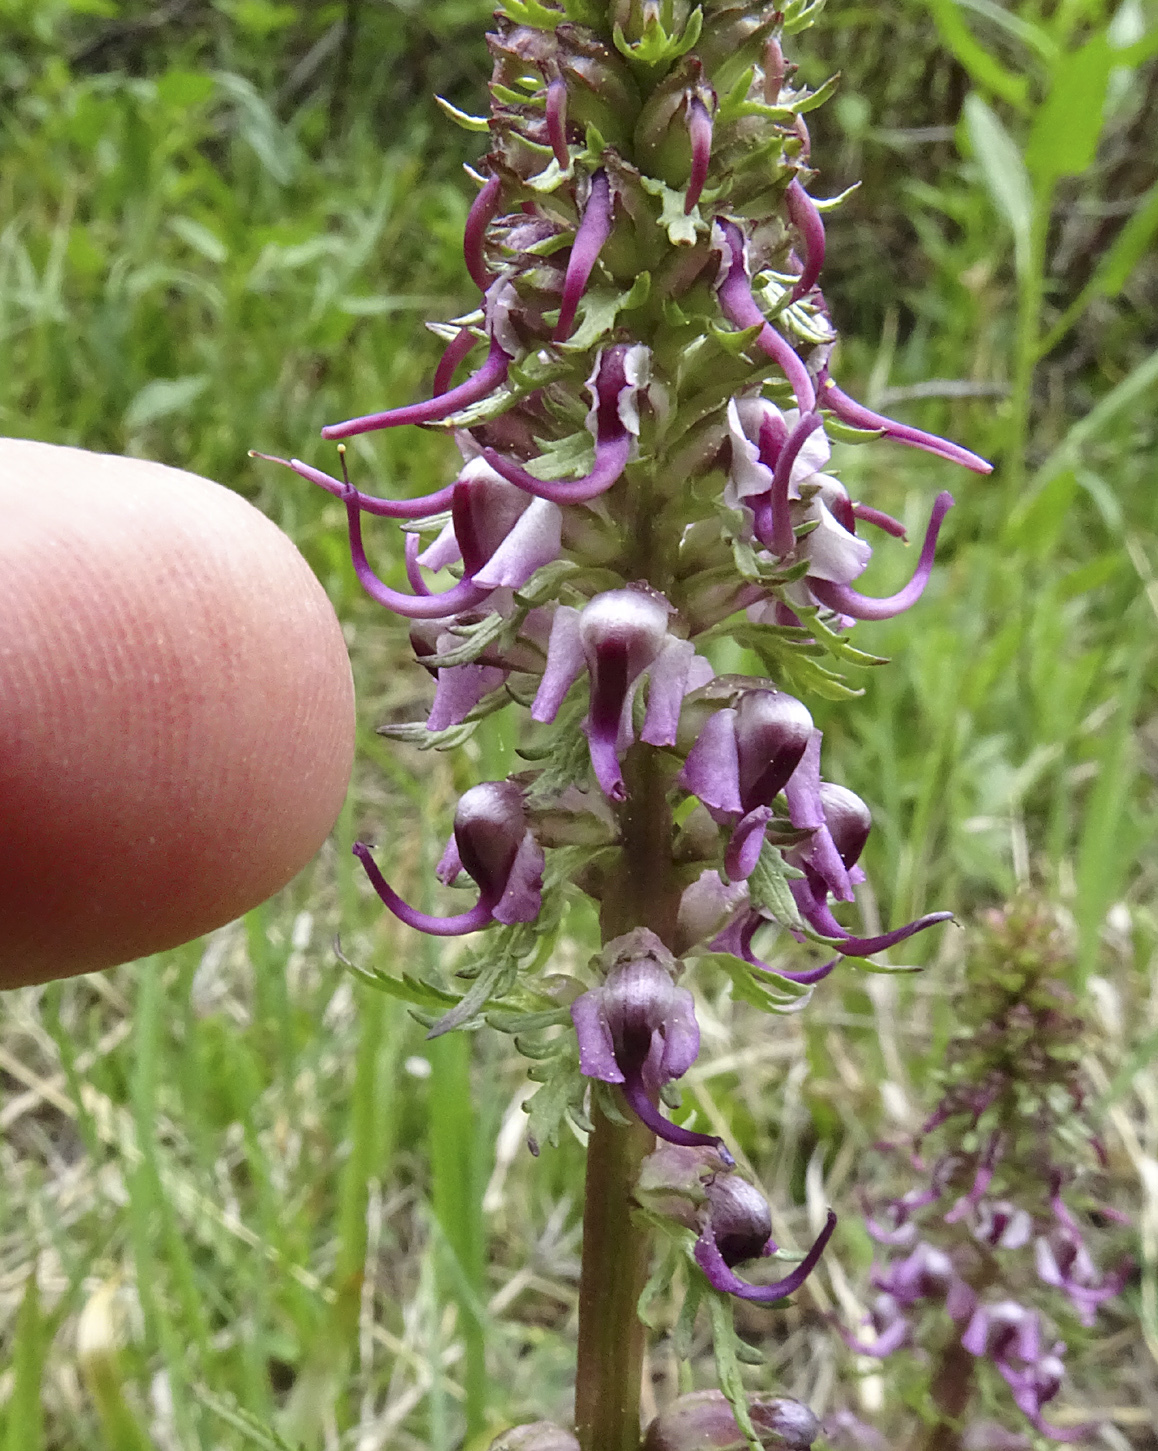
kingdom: Plantae
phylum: Tracheophyta
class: Magnoliopsida
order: Lamiales
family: Orobanchaceae
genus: Pedicularis
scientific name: Pedicularis groenlandica
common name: Elephant's-head
